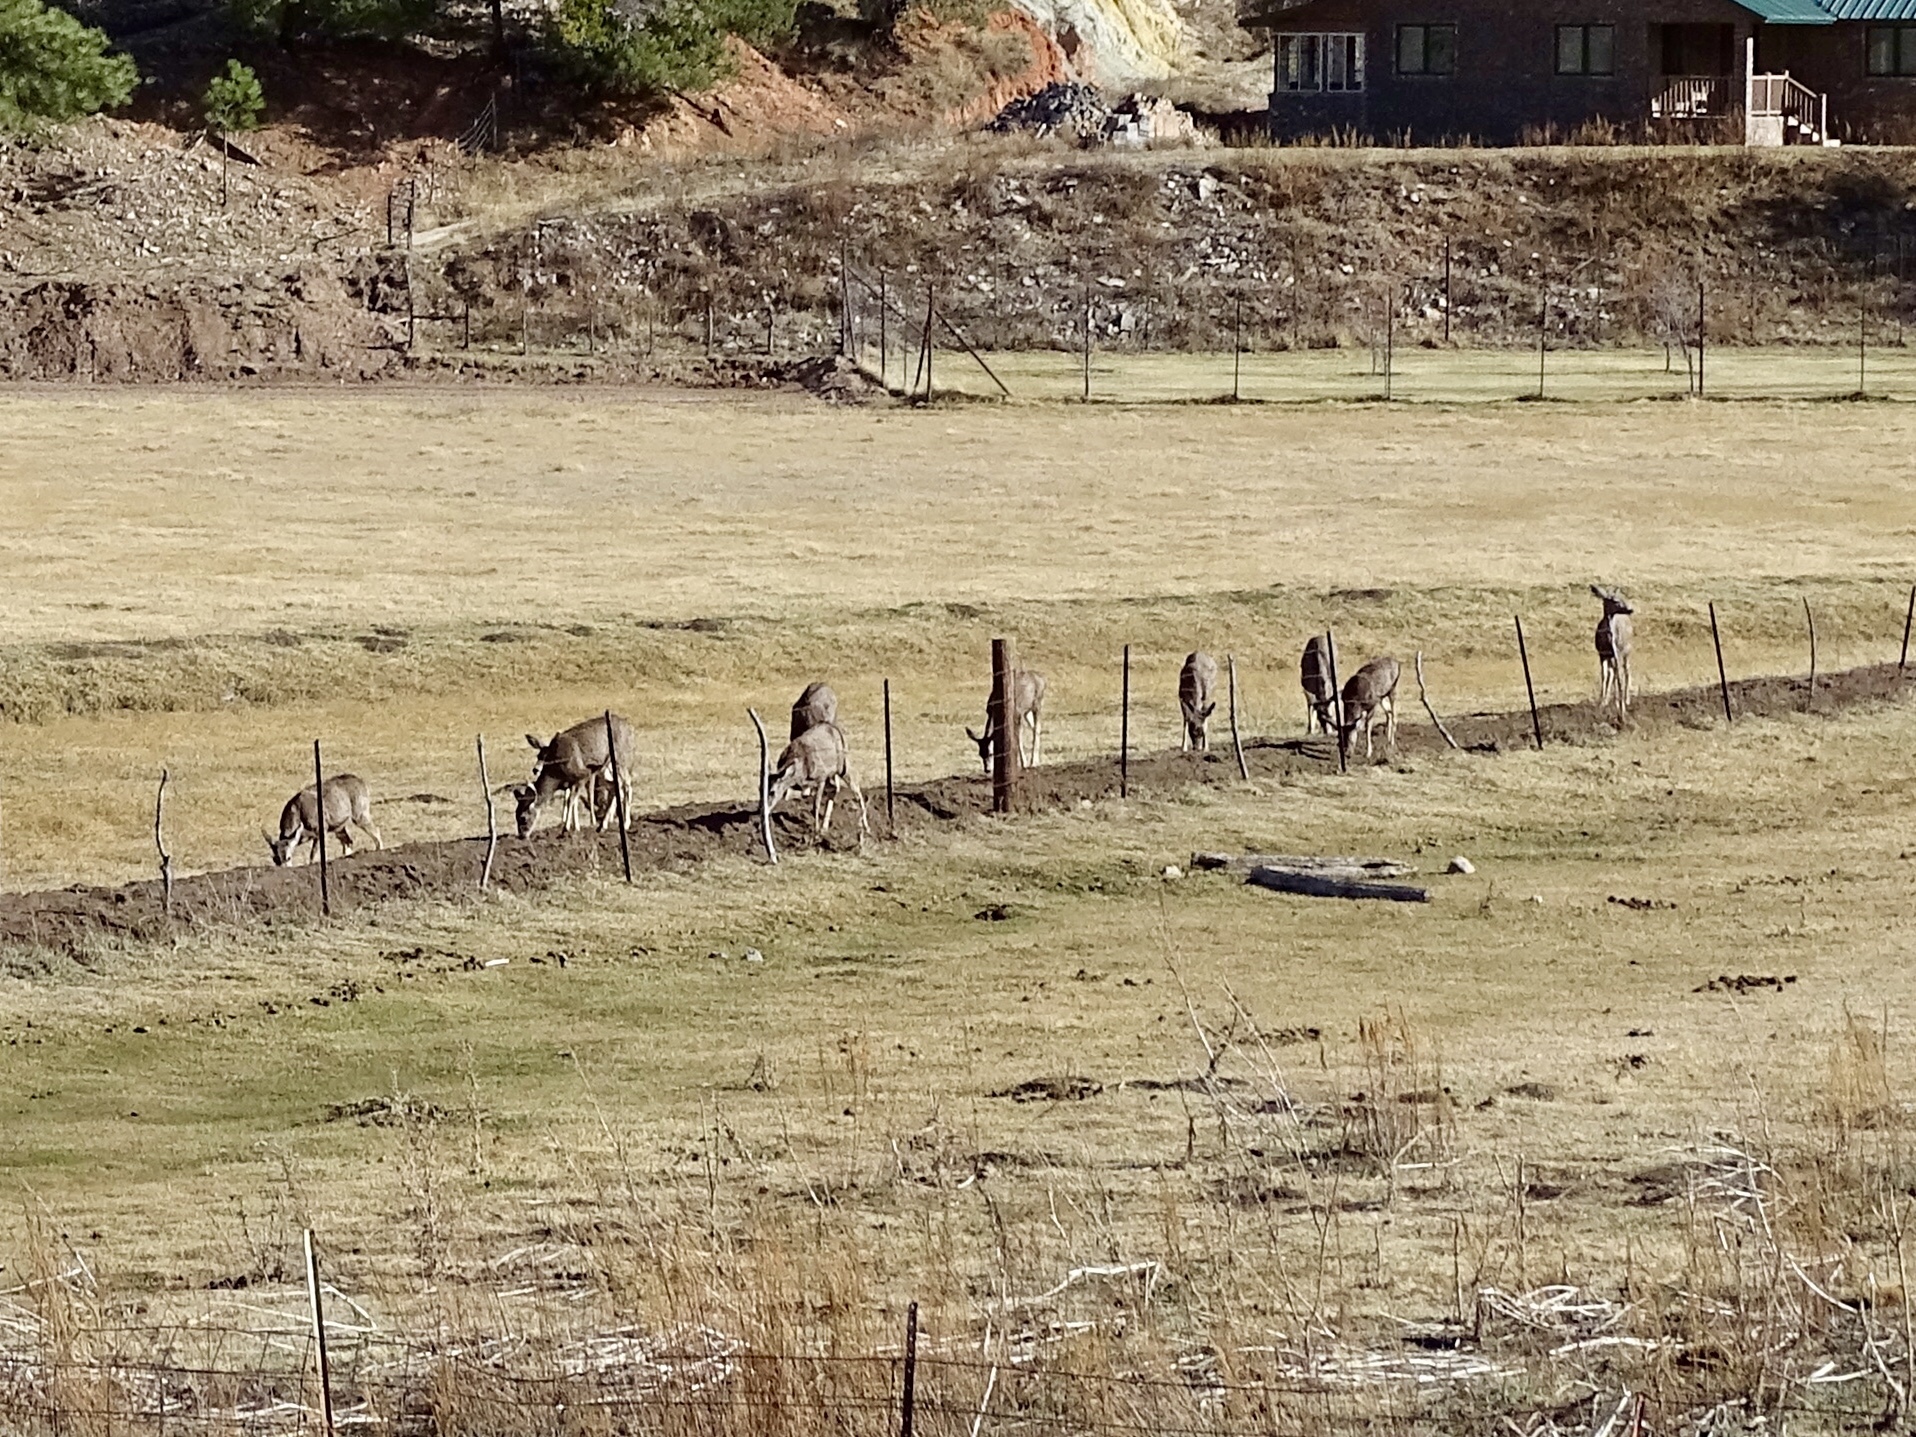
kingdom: Animalia
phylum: Chordata
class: Mammalia
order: Artiodactyla
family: Cervidae
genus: Odocoileus
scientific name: Odocoileus hemionus
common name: Mule deer
